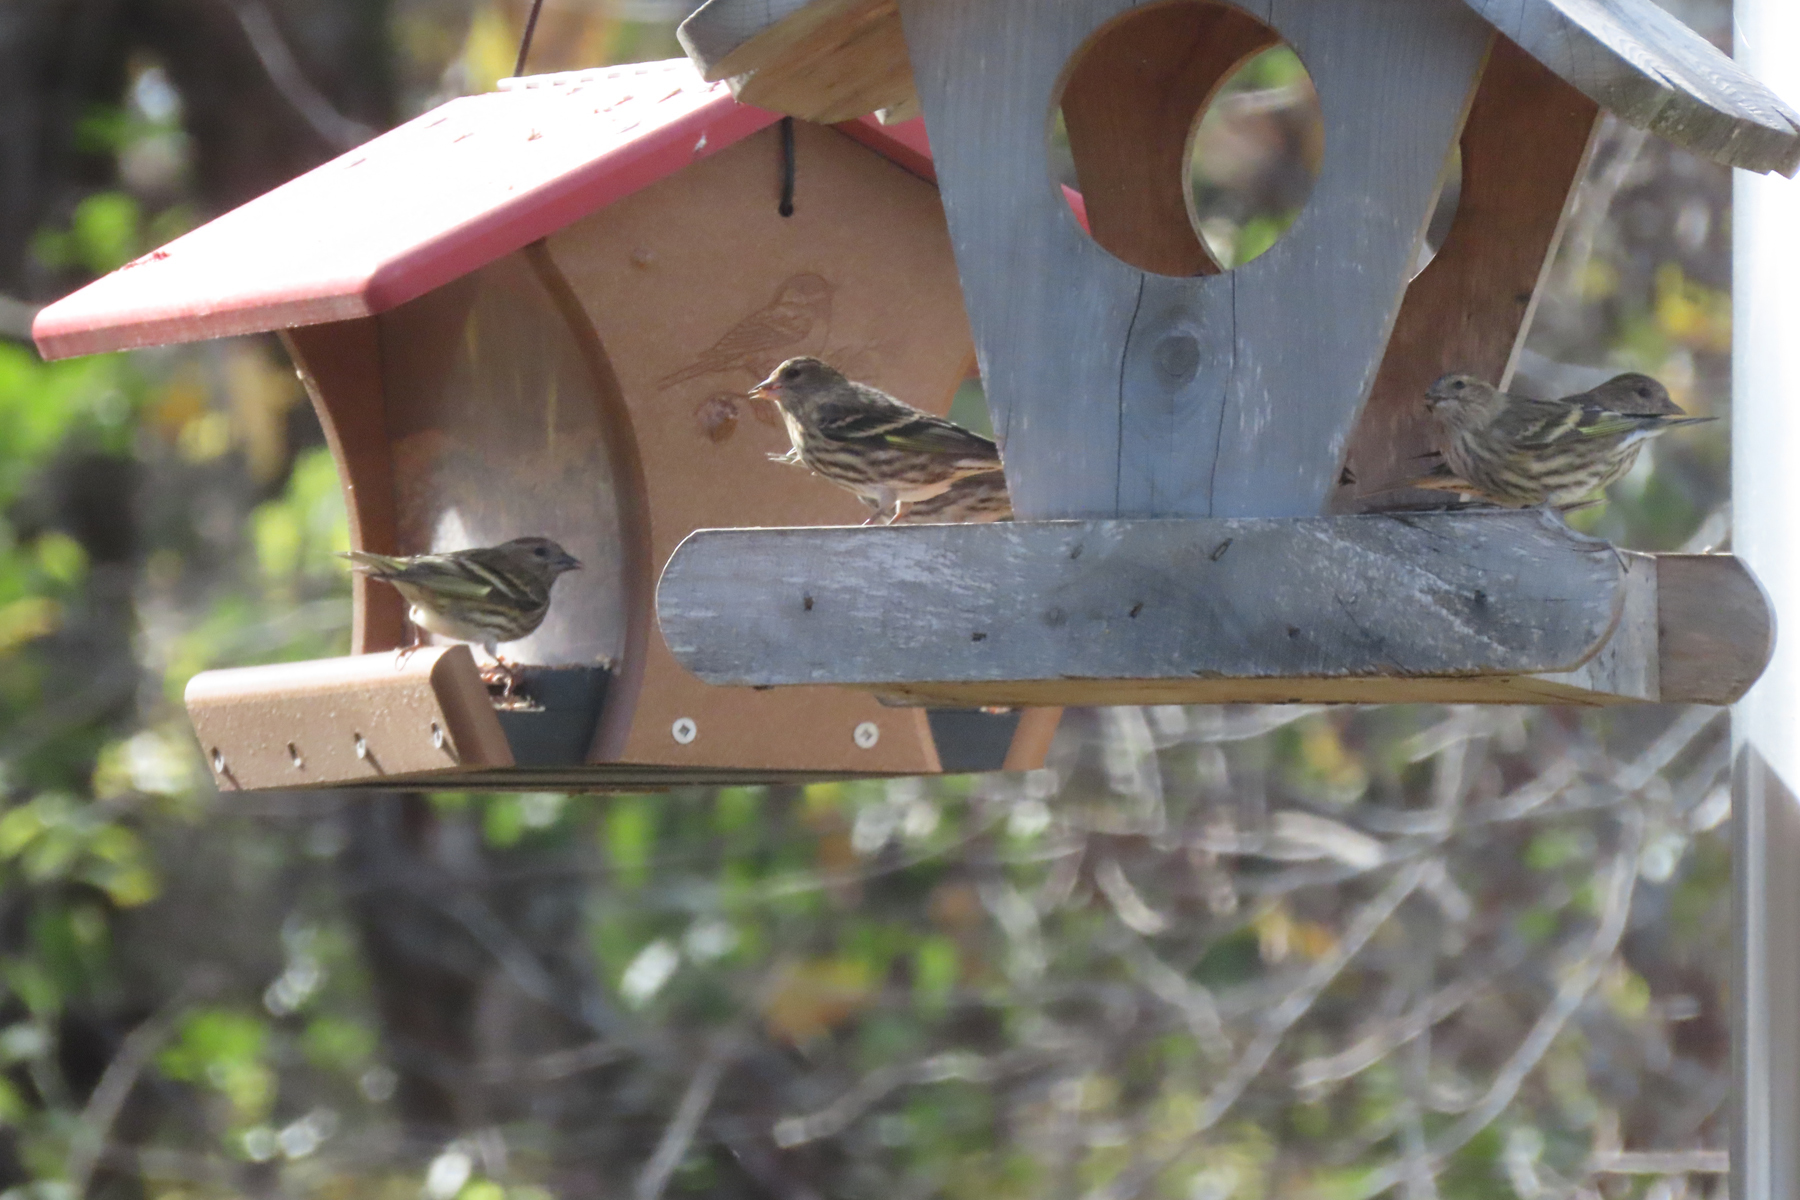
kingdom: Animalia
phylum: Chordata
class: Aves
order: Passeriformes
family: Fringillidae
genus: Spinus
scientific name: Spinus pinus
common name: Pine siskin
